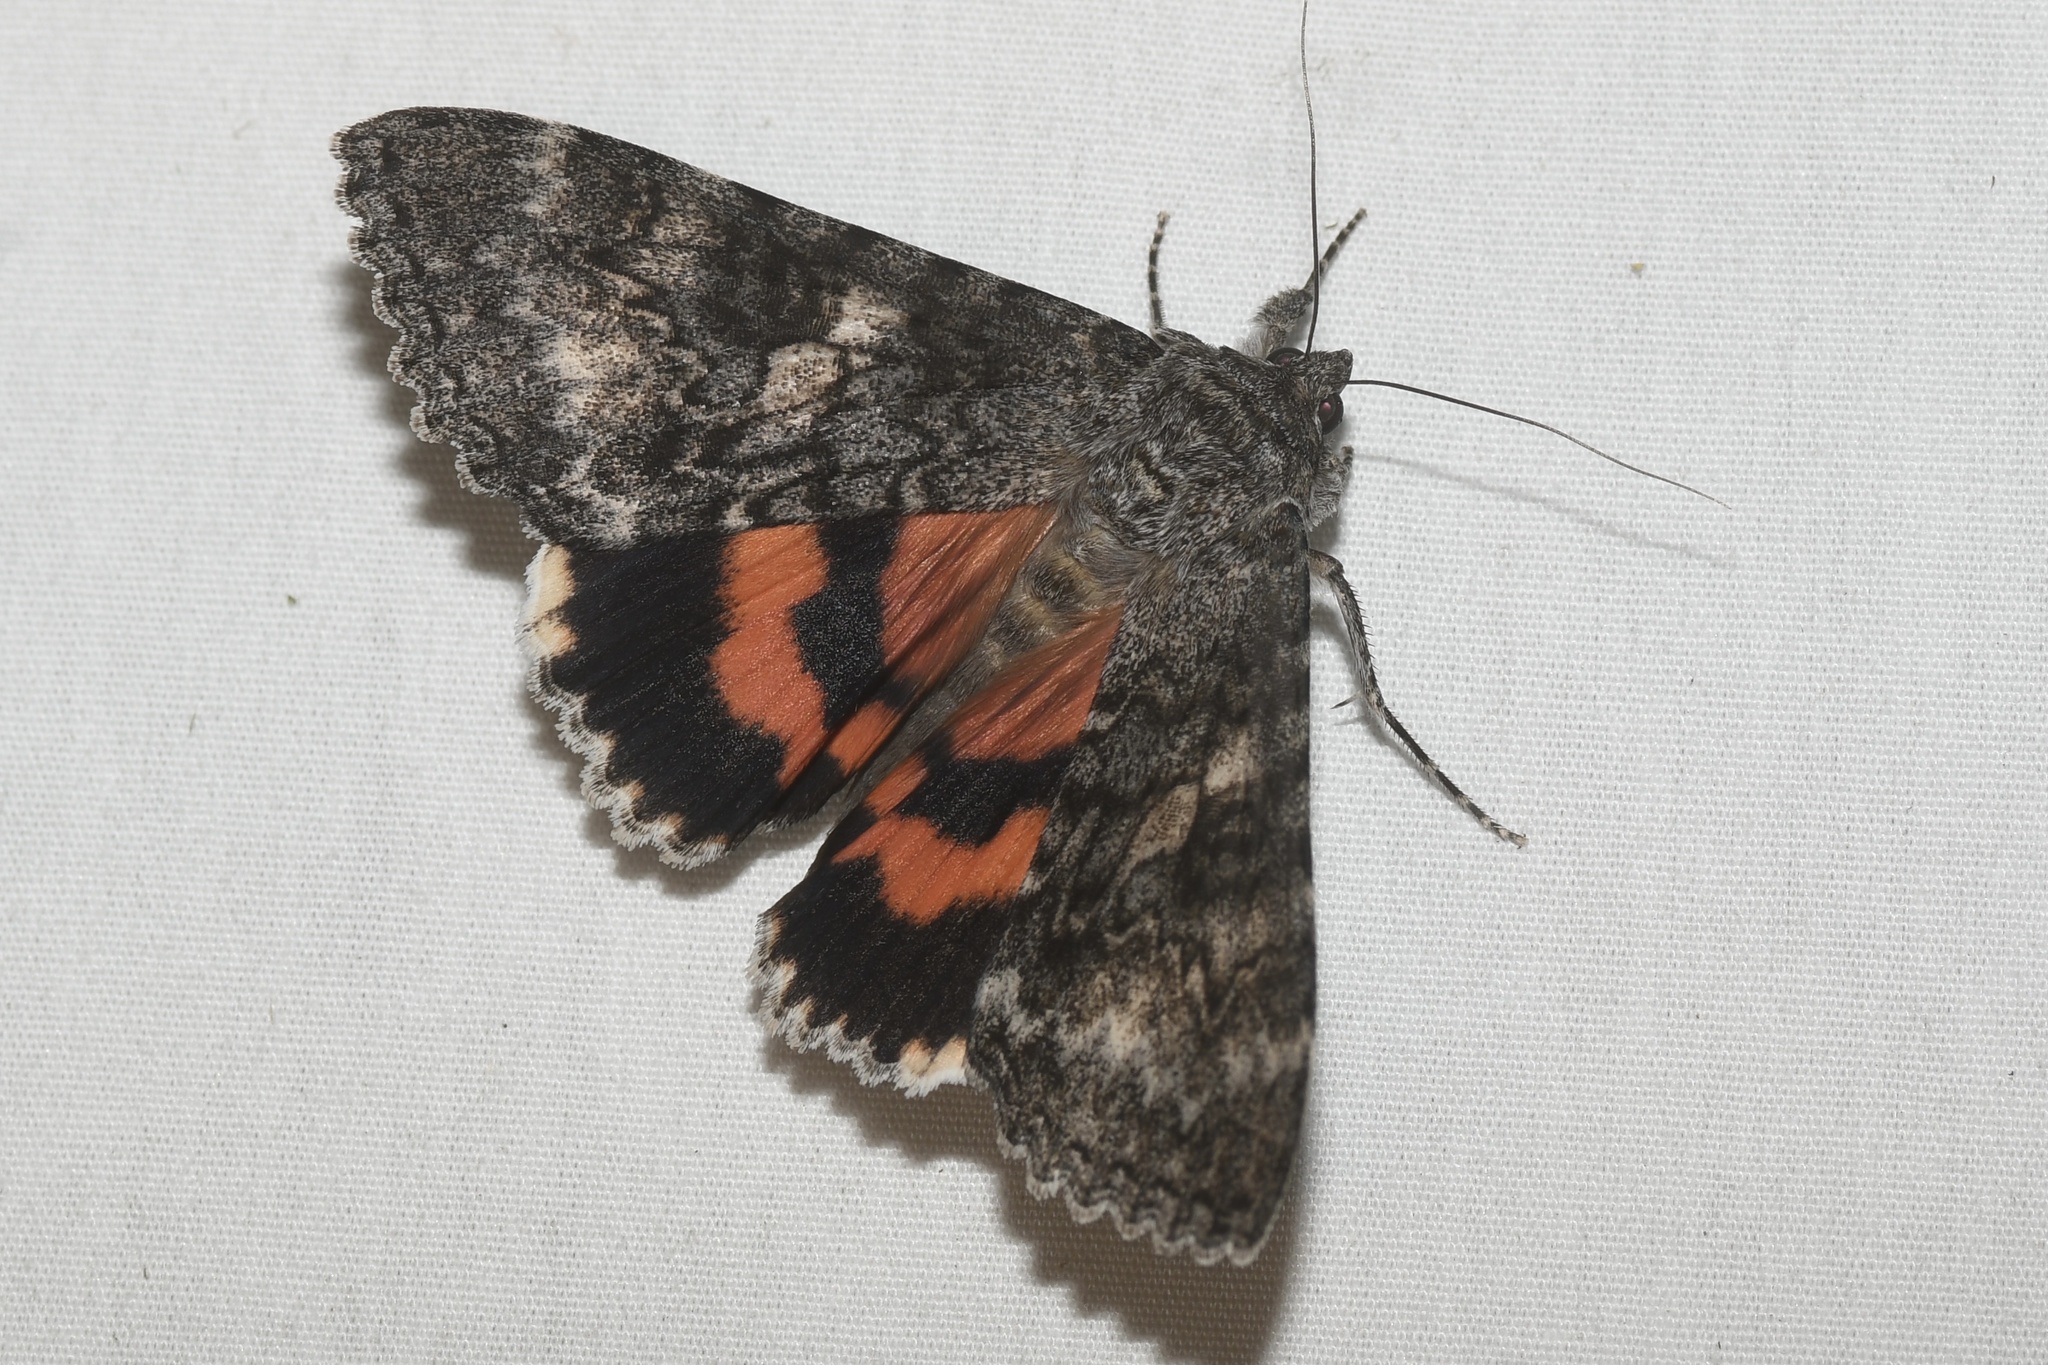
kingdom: Animalia
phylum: Arthropoda
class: Insecta
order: Lepidoptera
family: Erebidae
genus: Catocala
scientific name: Catocala briseis
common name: Briseis underwing
